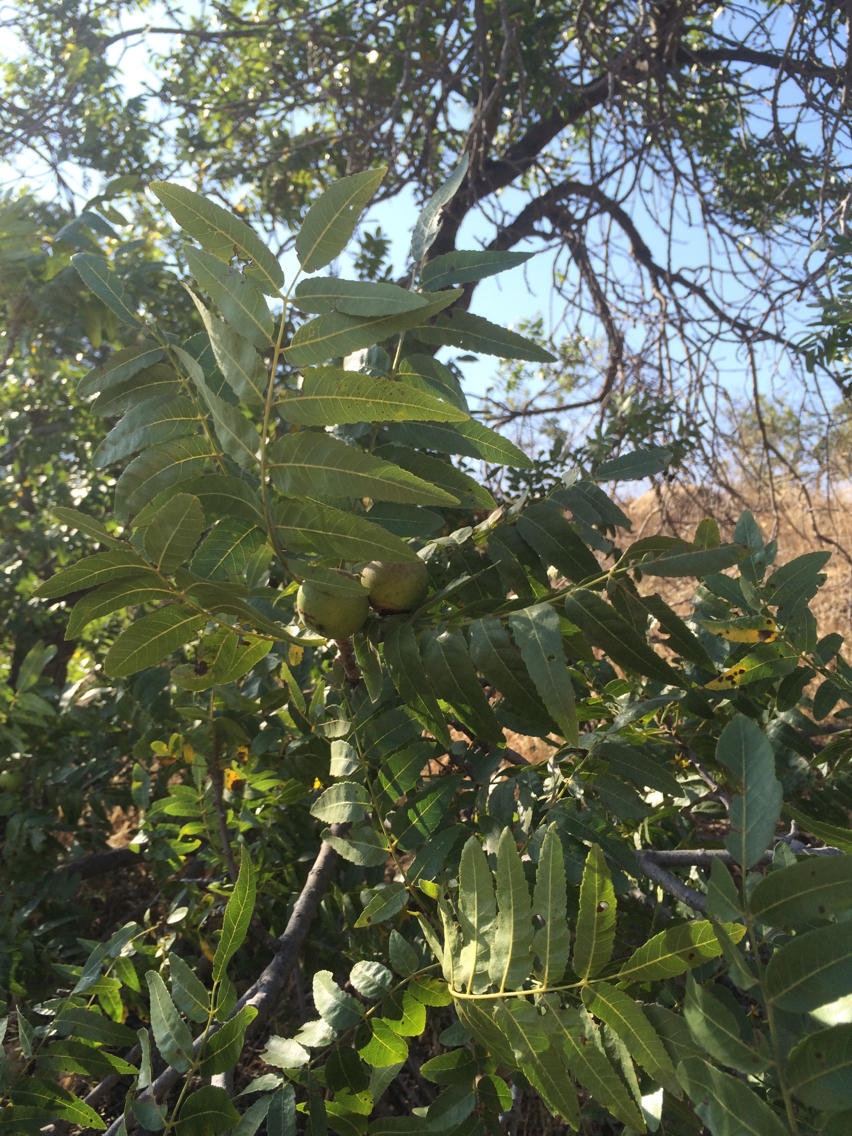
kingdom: Plantae
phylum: Tracheophyta
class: Magnoliopsida
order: Fagales
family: Juglandaceae
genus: Juglans
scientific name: Juglans californica
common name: Southern california black walnut
